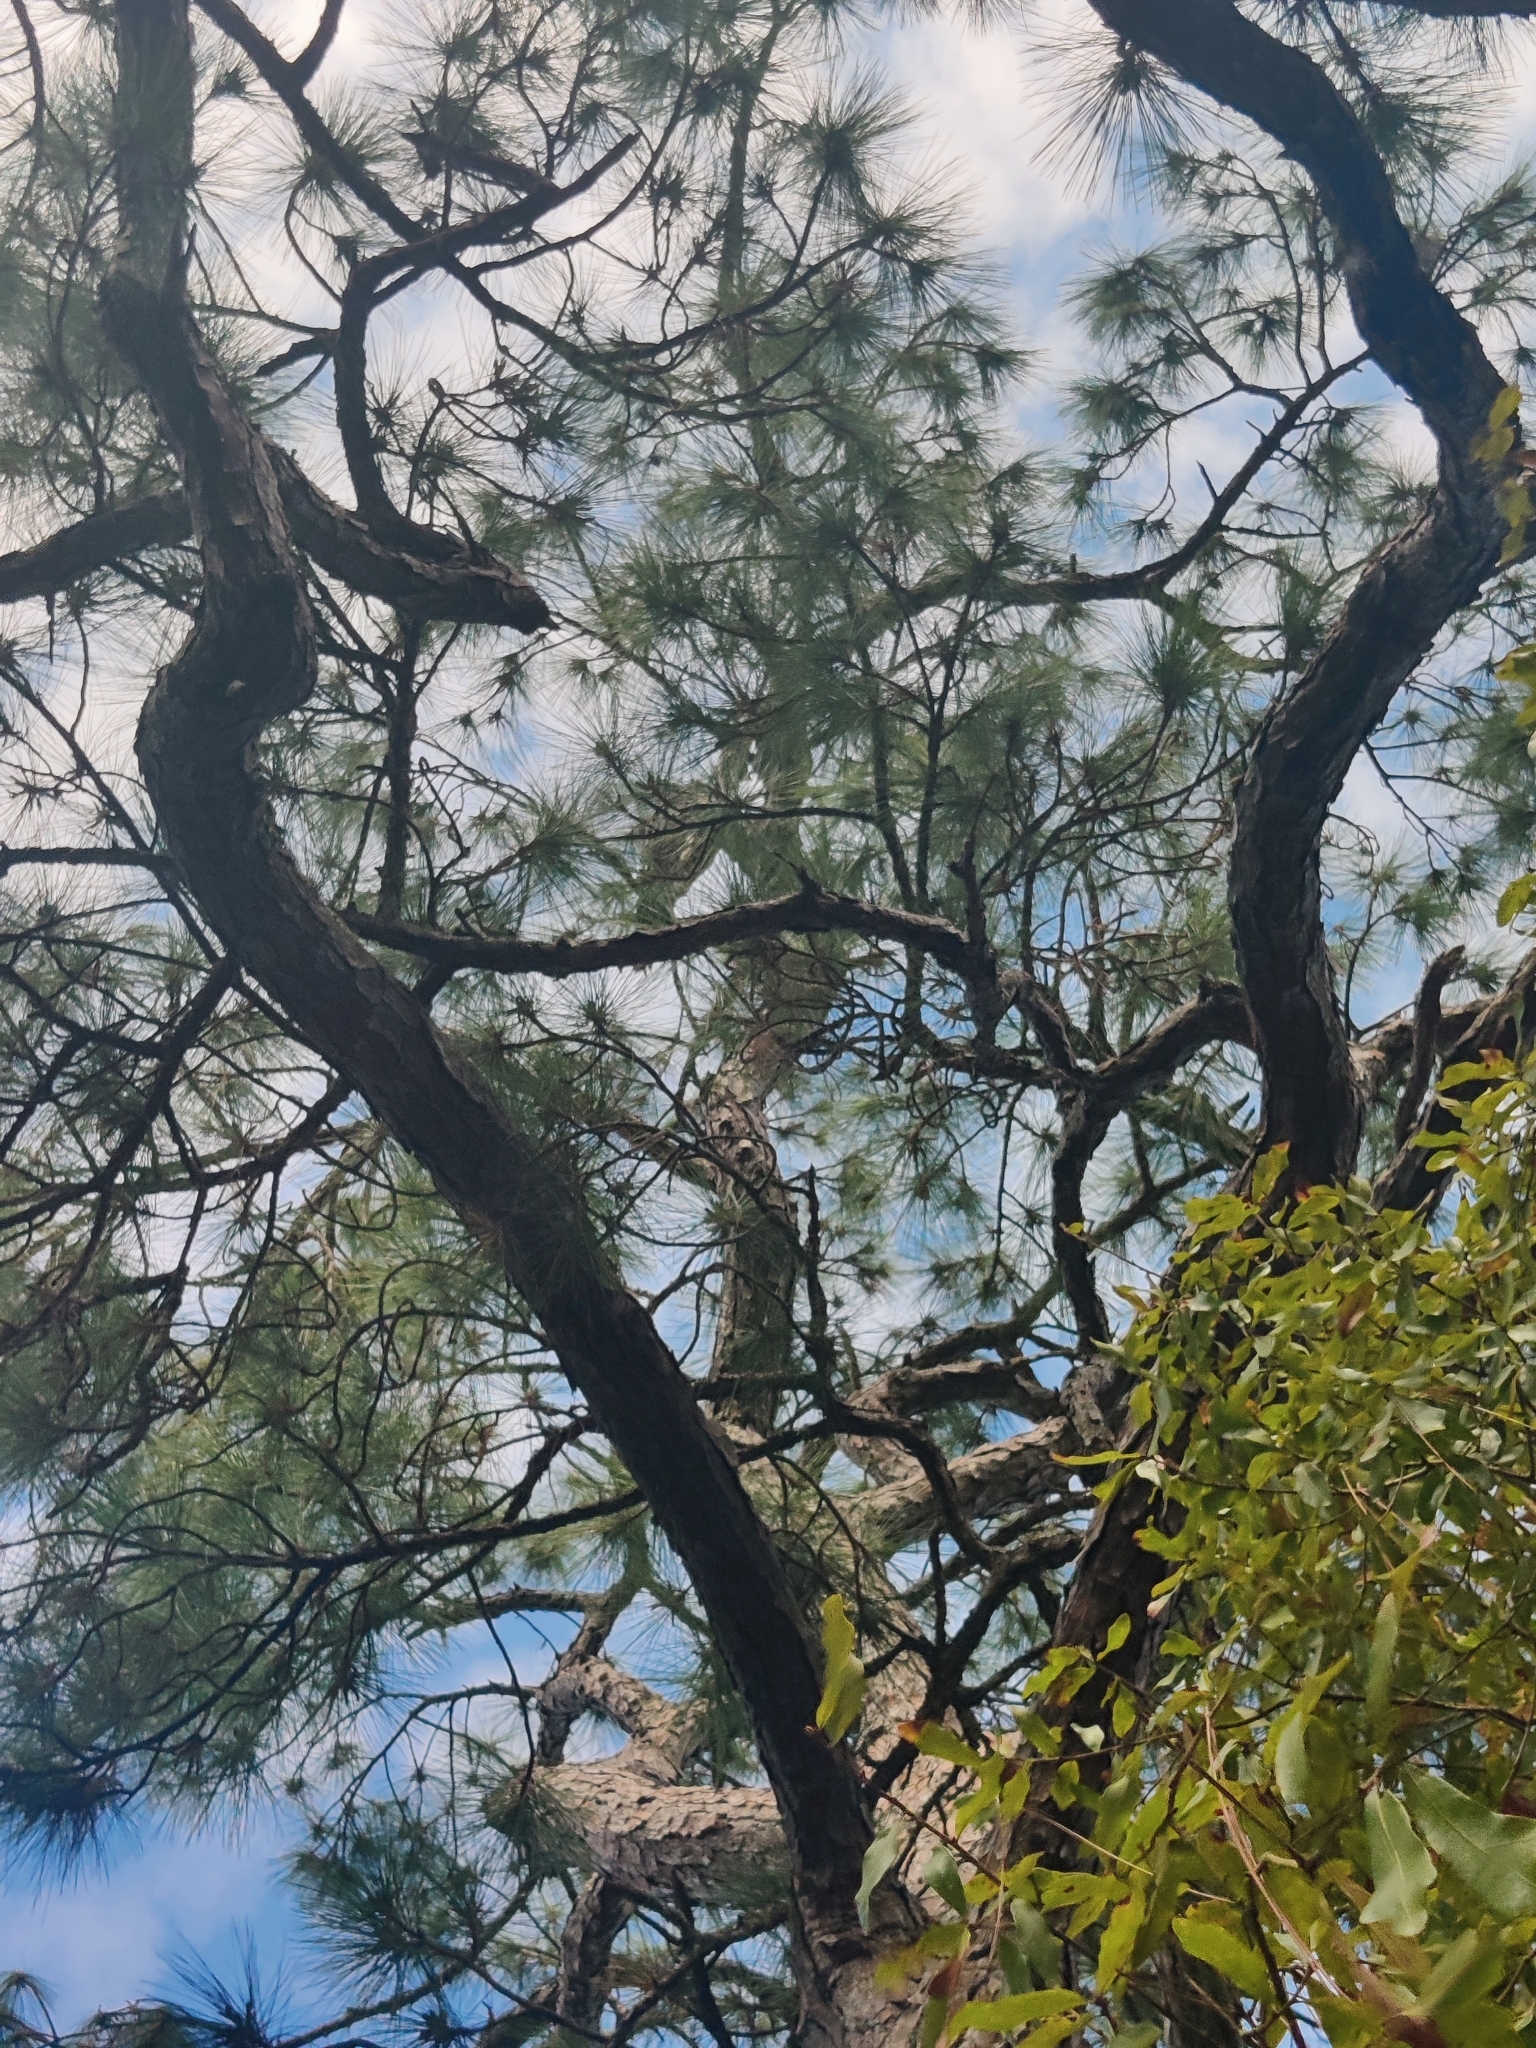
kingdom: Plantae
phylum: Tracheophyta
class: Pinopsida
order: Pinales
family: Pinaceae
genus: Pinus
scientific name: Pinus elliottii
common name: Slash pine
